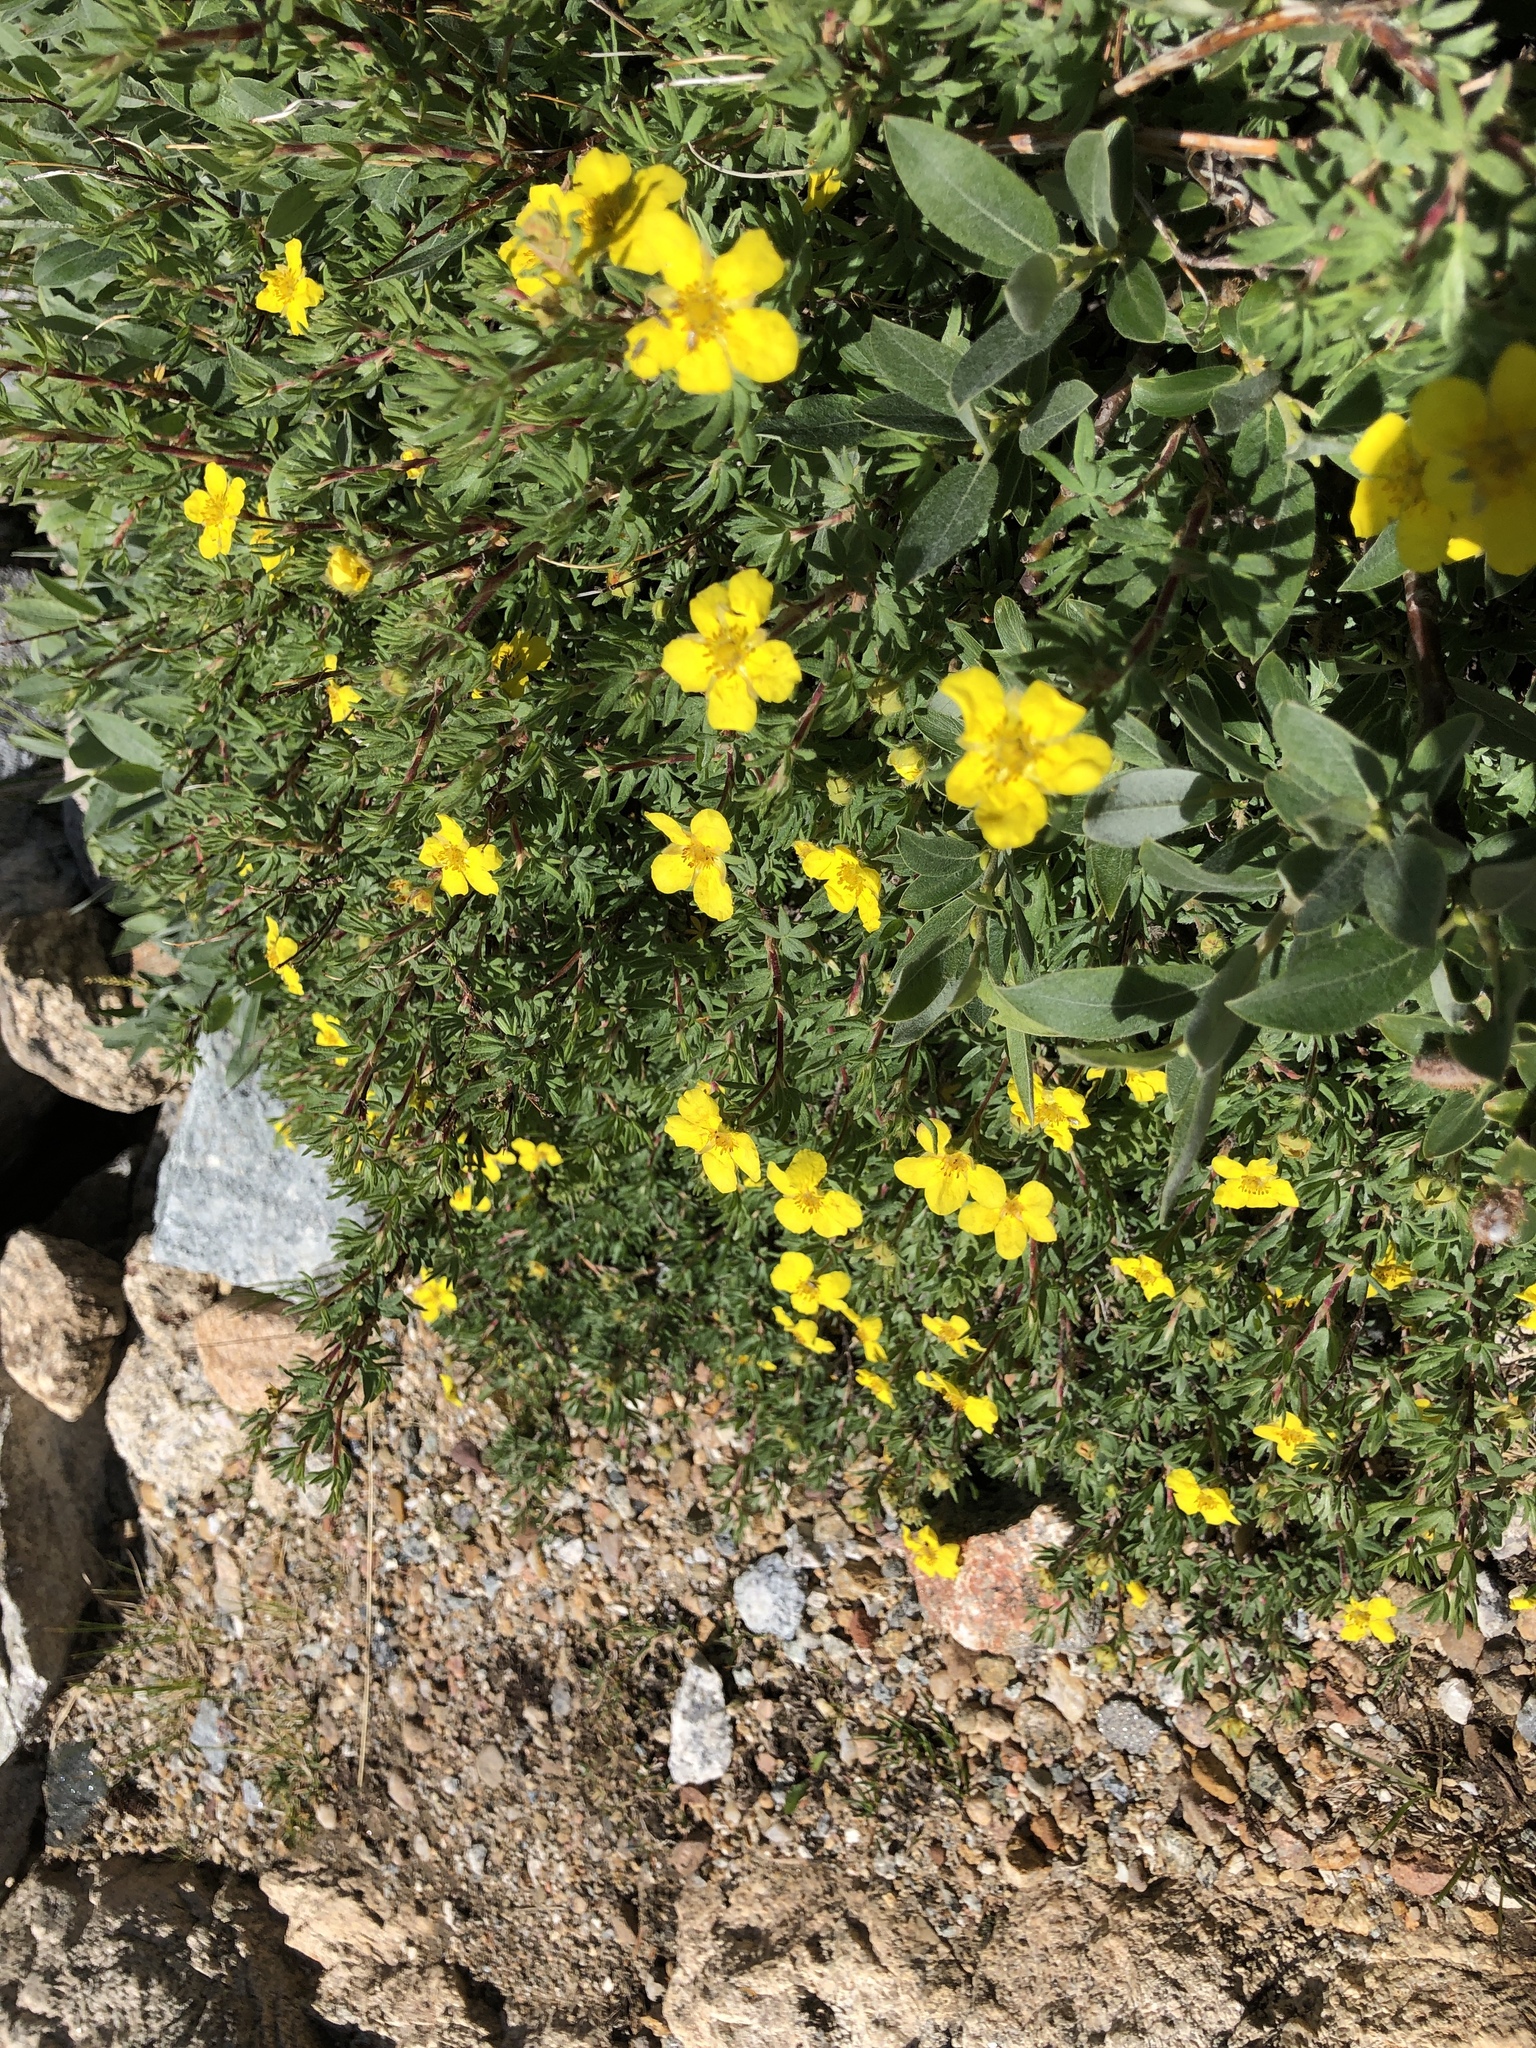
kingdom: Plantae
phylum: Tracheophyta
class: Magnoliopsida
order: Rosales
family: Rosaceae
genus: Dasiphora
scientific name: Dasiphora fruticosa
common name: Shrubby cinquefoil
